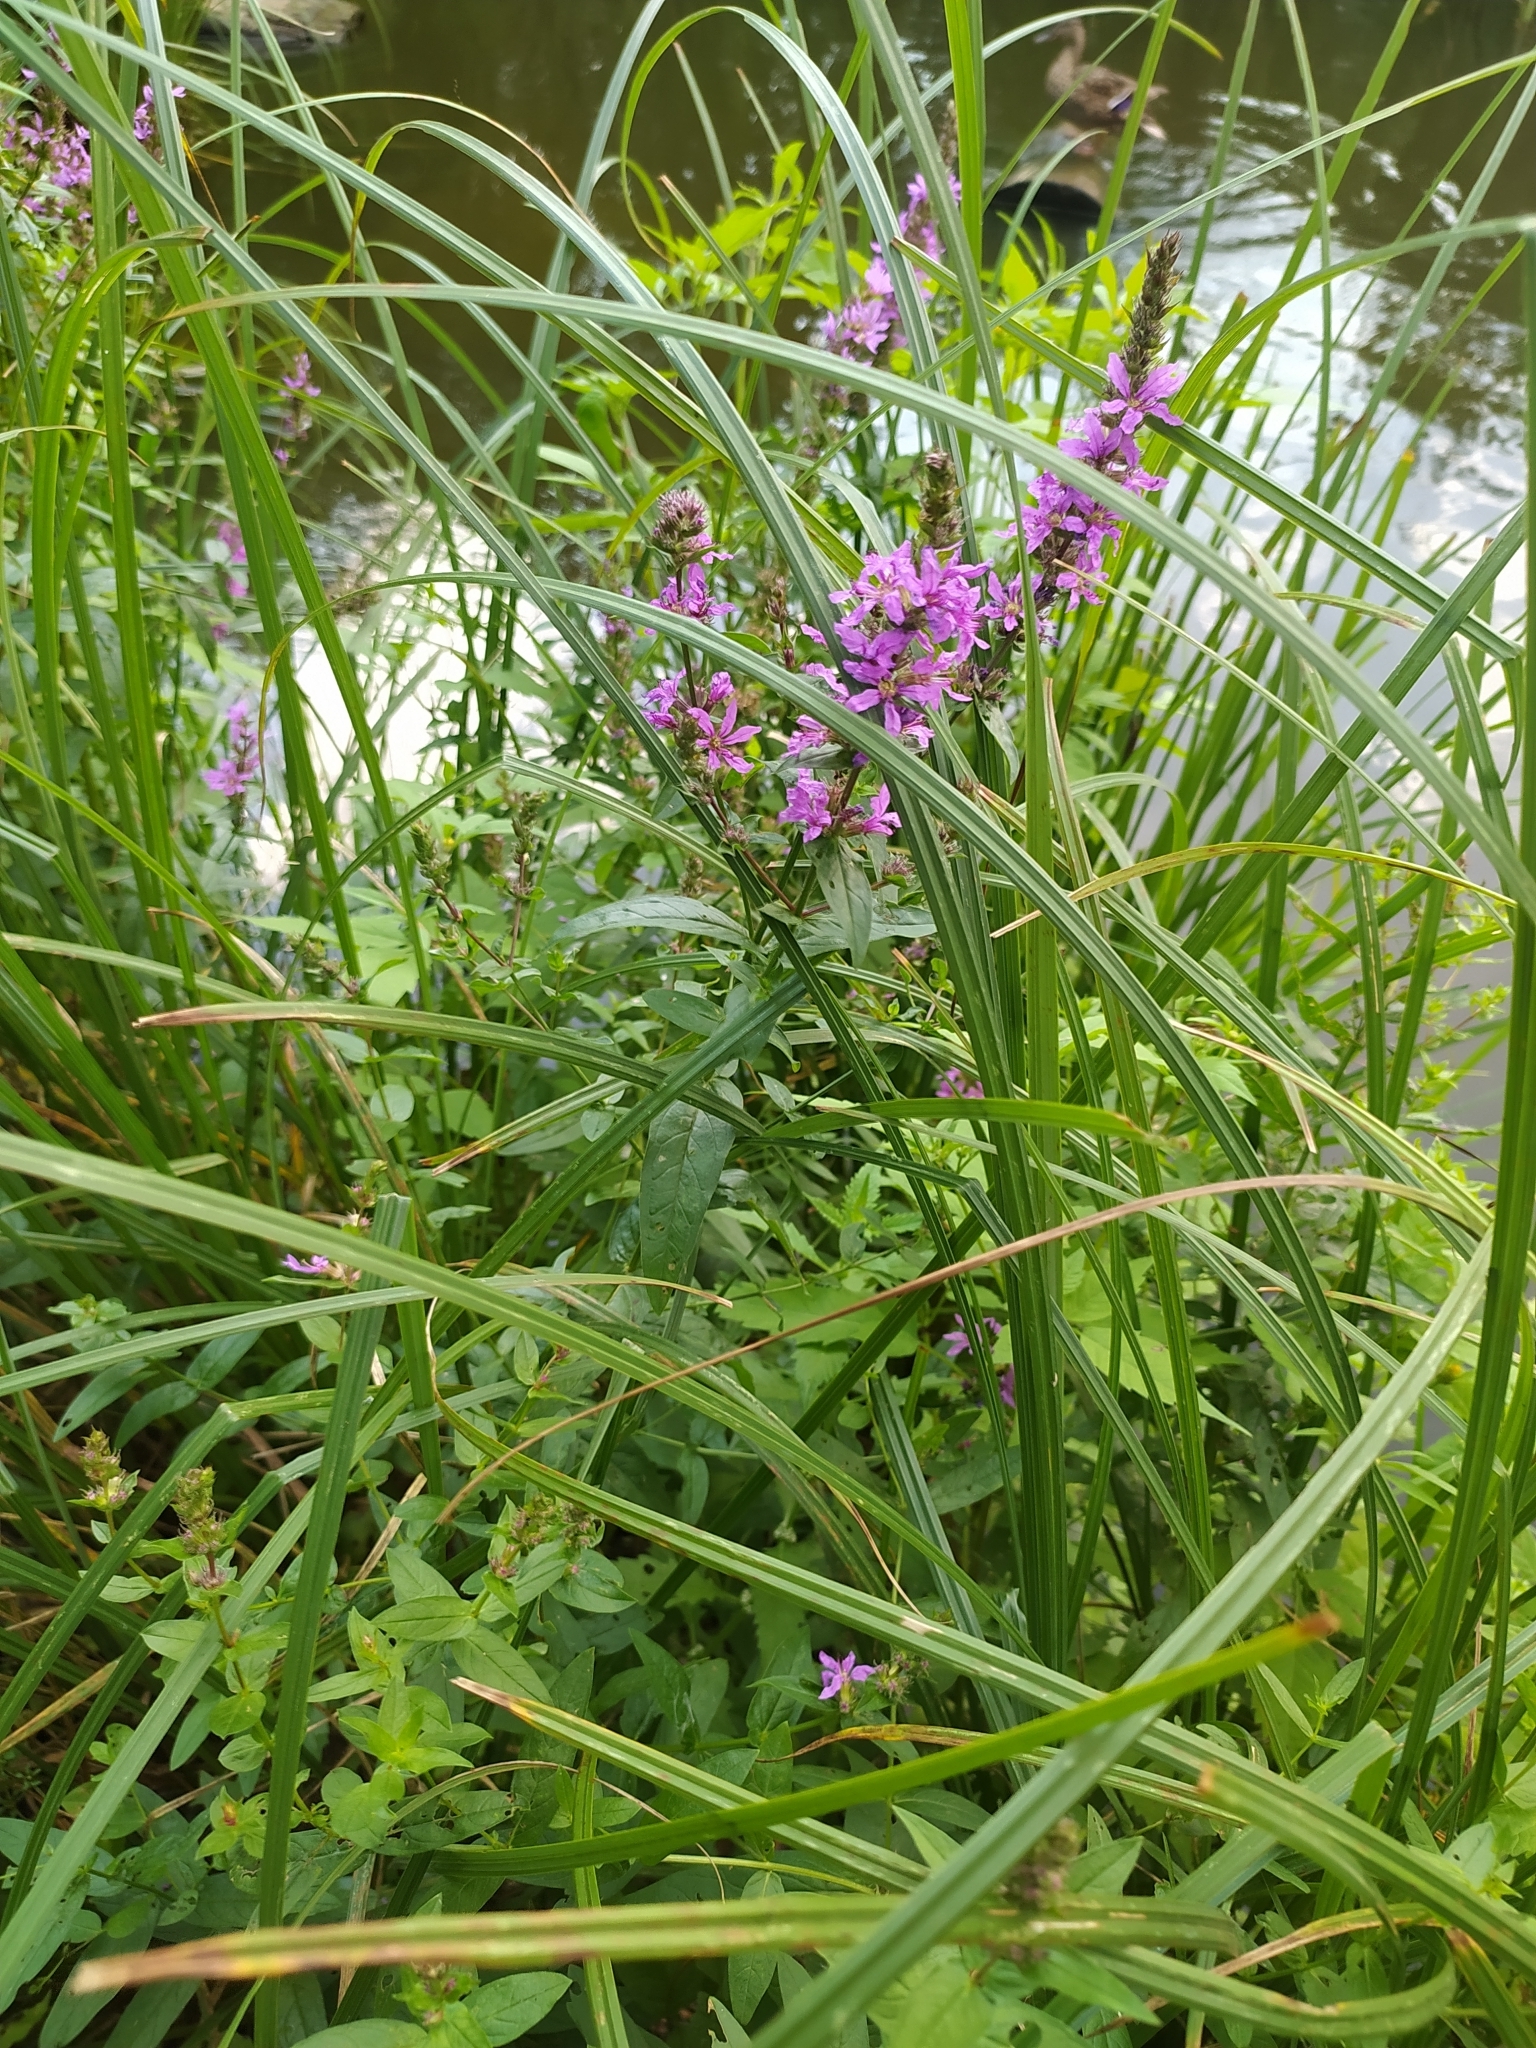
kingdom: Plantae
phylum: Tracheophyta
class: Magnoliopsida
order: Myrtales
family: Lythraceae
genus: Lythrum
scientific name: Lythrum salicaria
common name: Purple loosestrife
